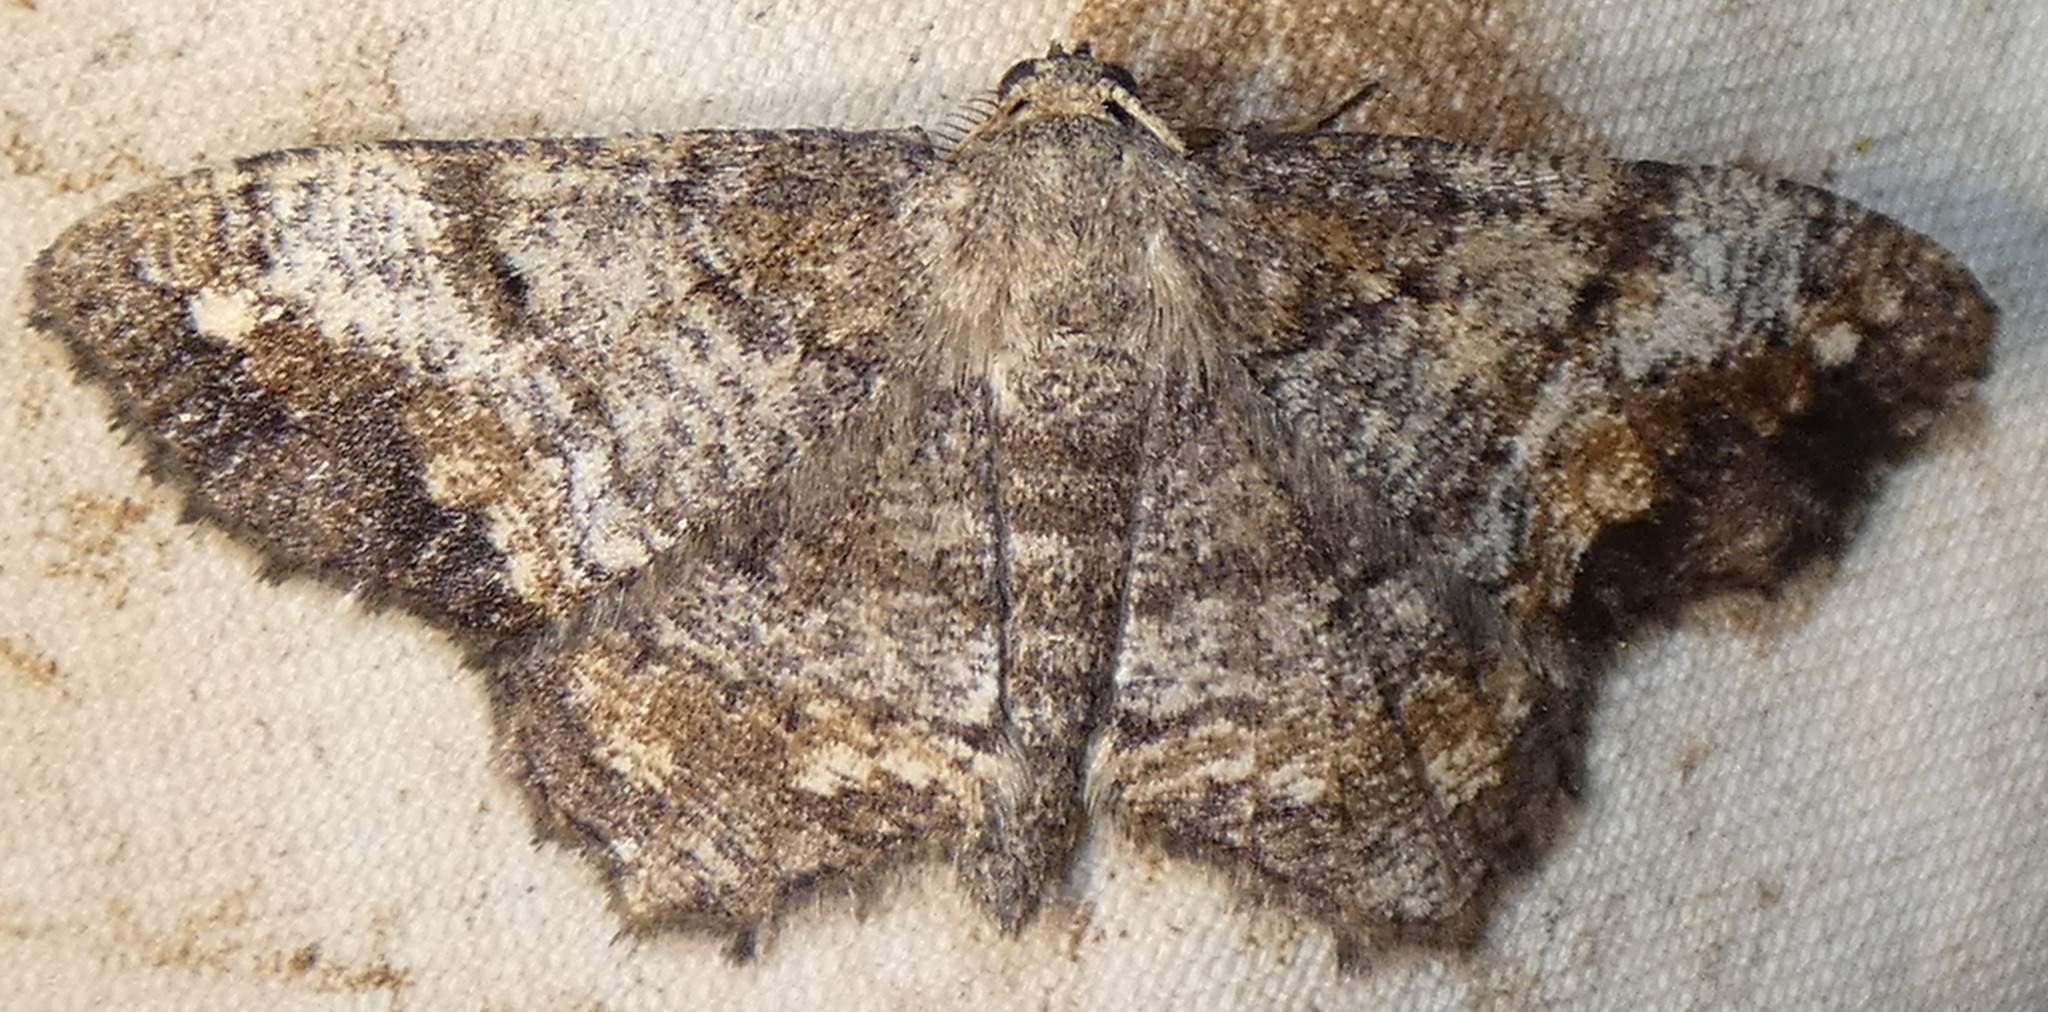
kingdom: Animalia
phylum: Arthropoda
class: Insecta
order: Lepidoptera
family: Geometridae
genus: Hypagyrtis
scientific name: Hypagyrtis unipunctata
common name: One-spotted variant
